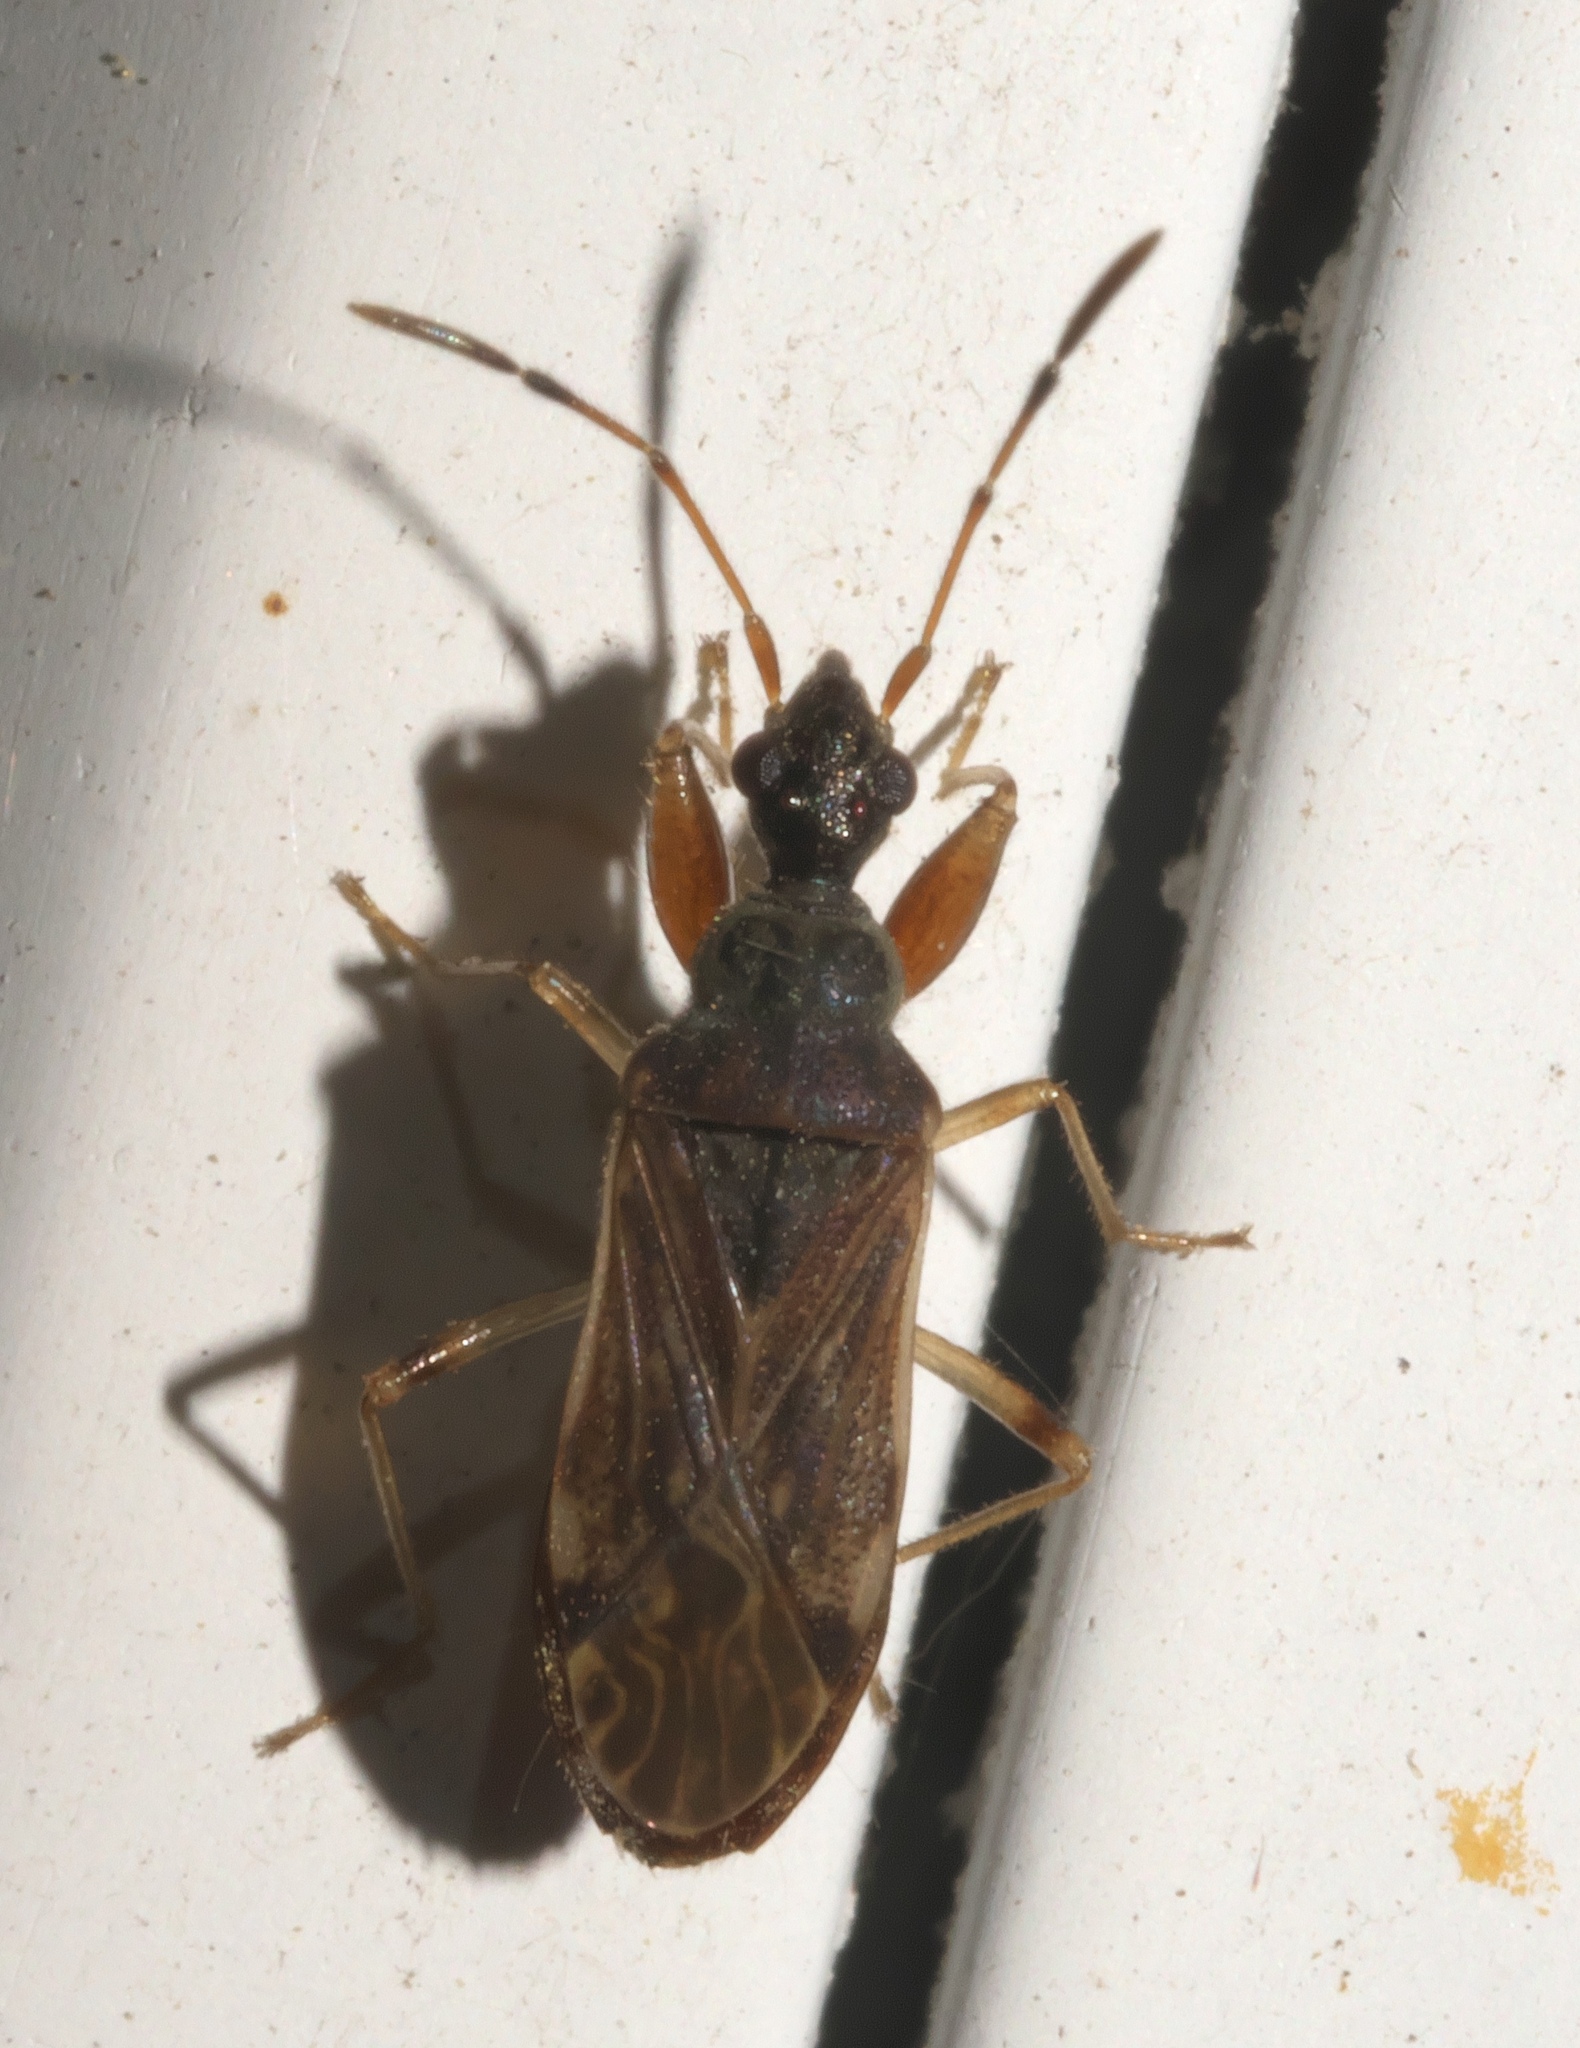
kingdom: Animalia
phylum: Arthropoda
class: Insecta
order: Hemiptera
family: Rhyparochromidae
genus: Heraeus
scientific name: Heraeus plebejus
